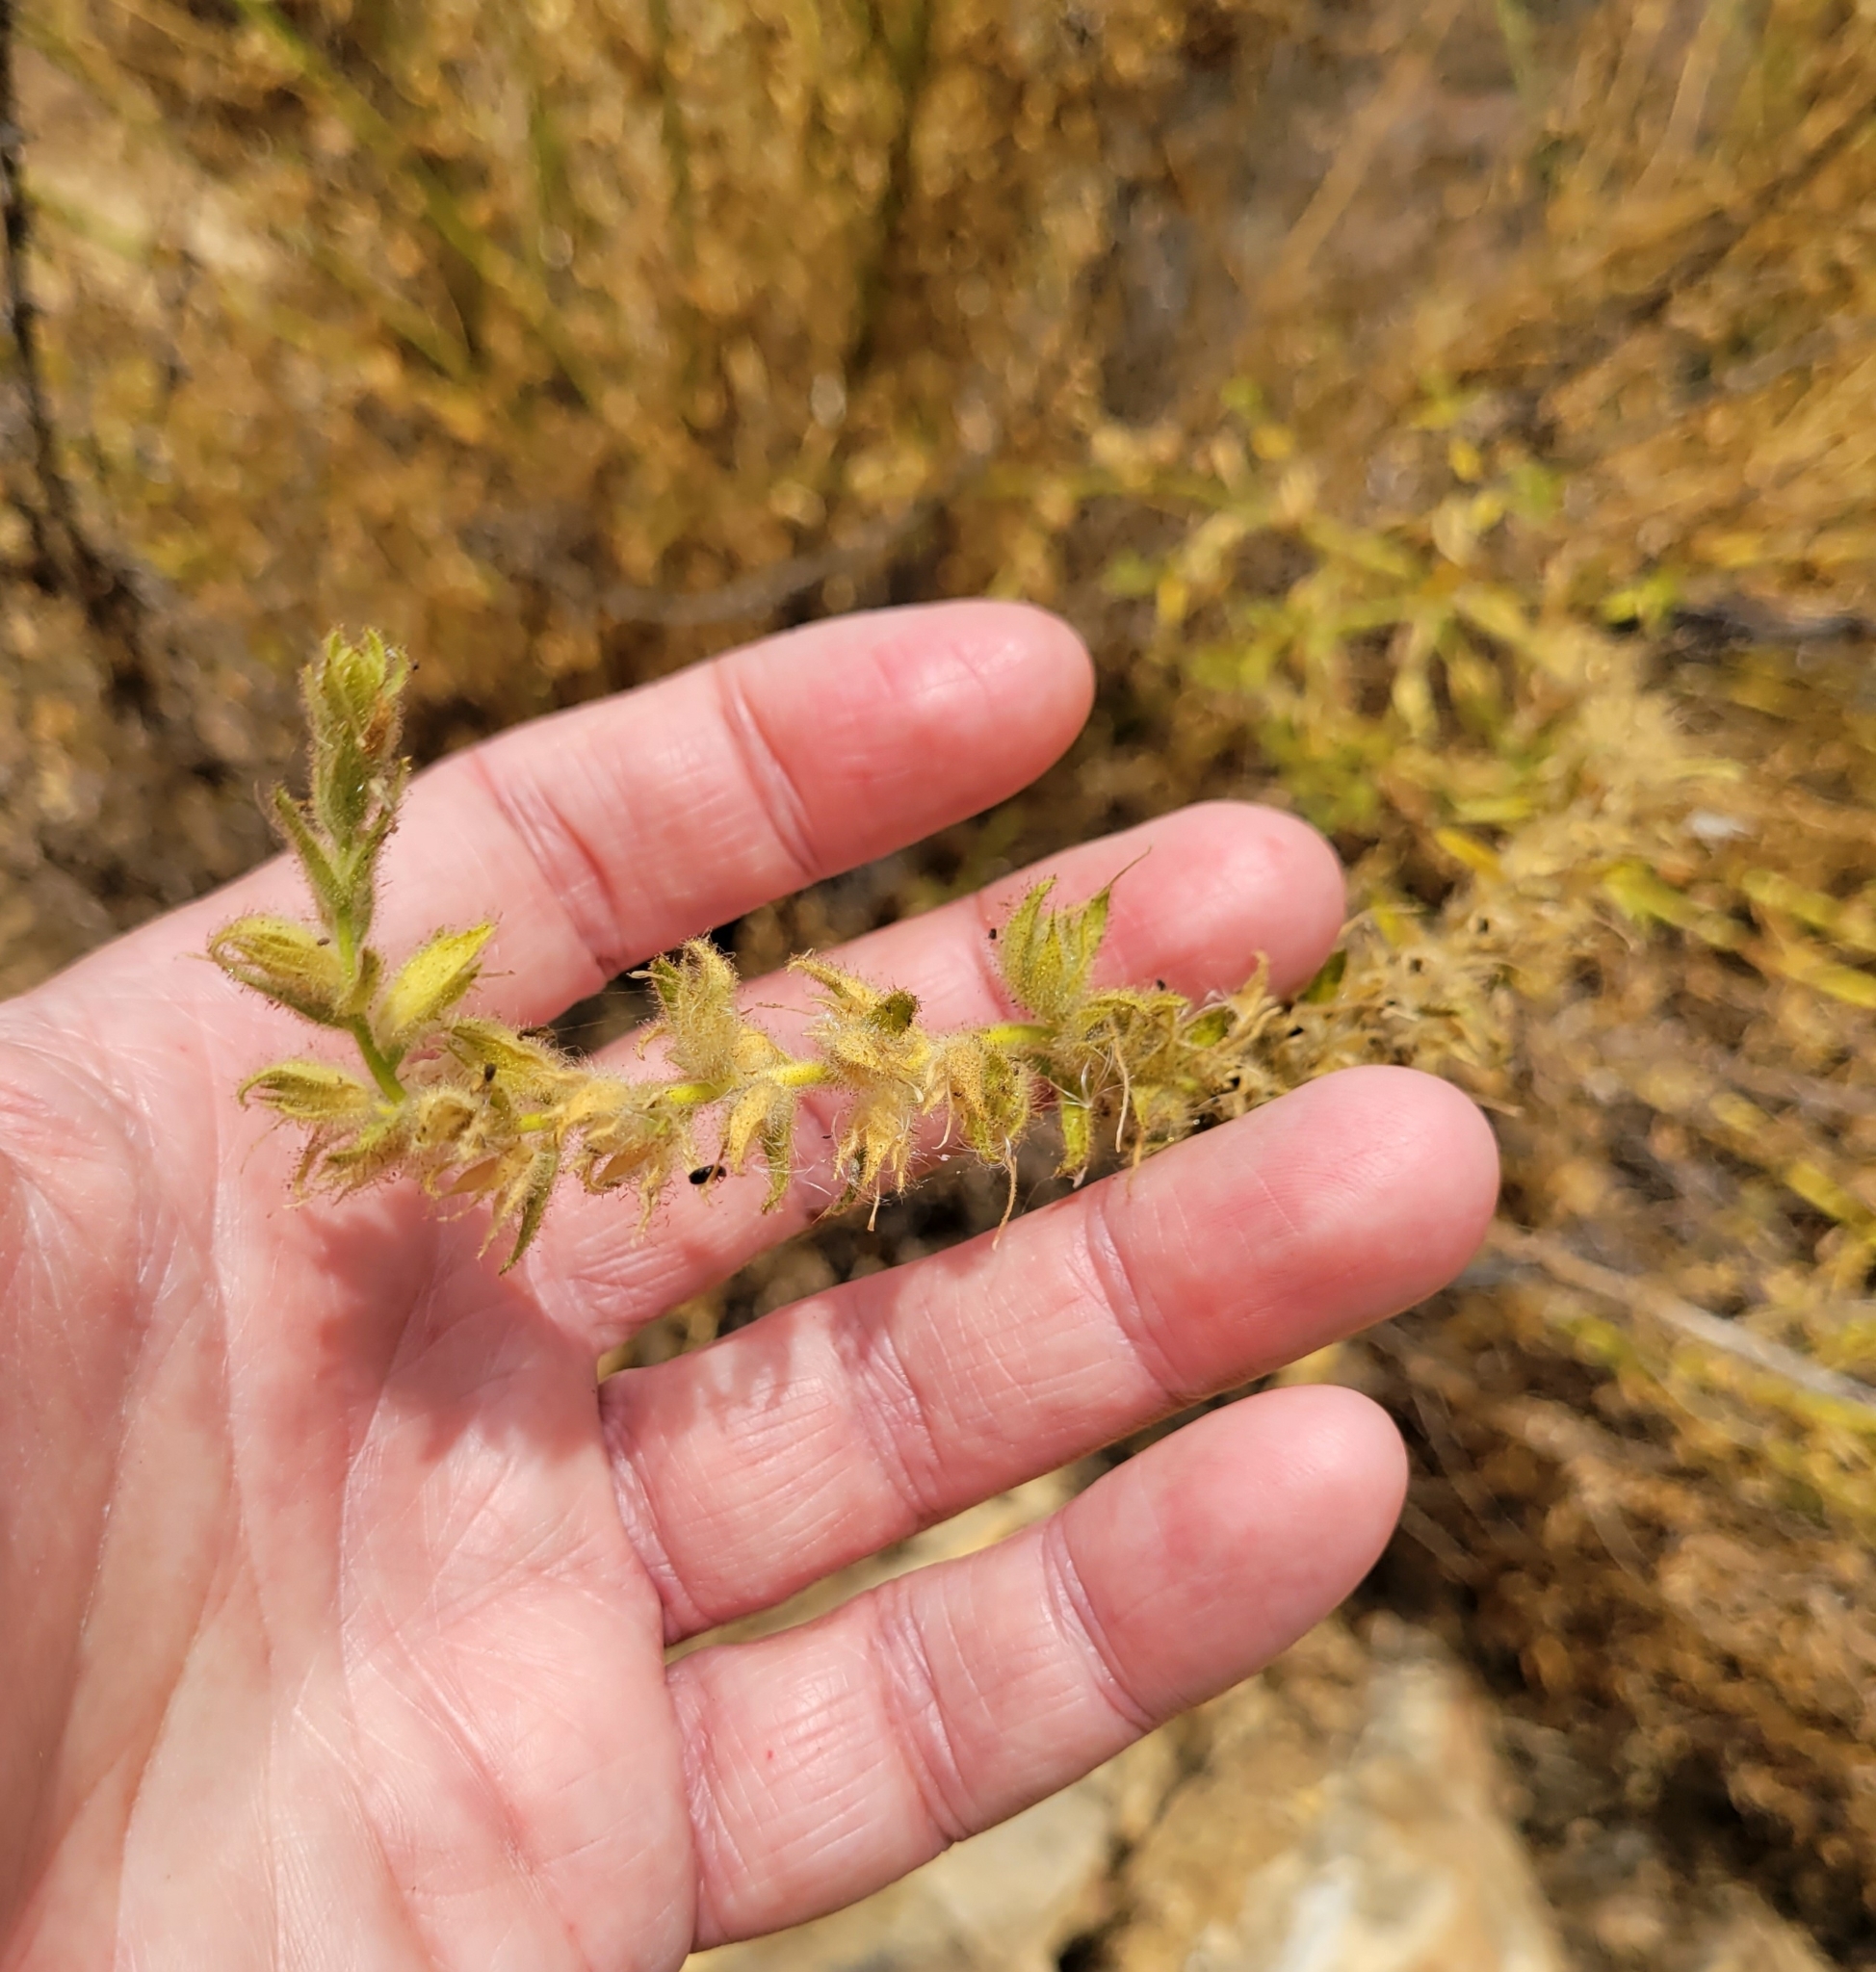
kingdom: Plantae
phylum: Tracheophyta
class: Magnoliopsida
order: Lamiales
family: Plantaginaceae
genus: Sairocarpus
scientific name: Sairocarpus multiflorus
